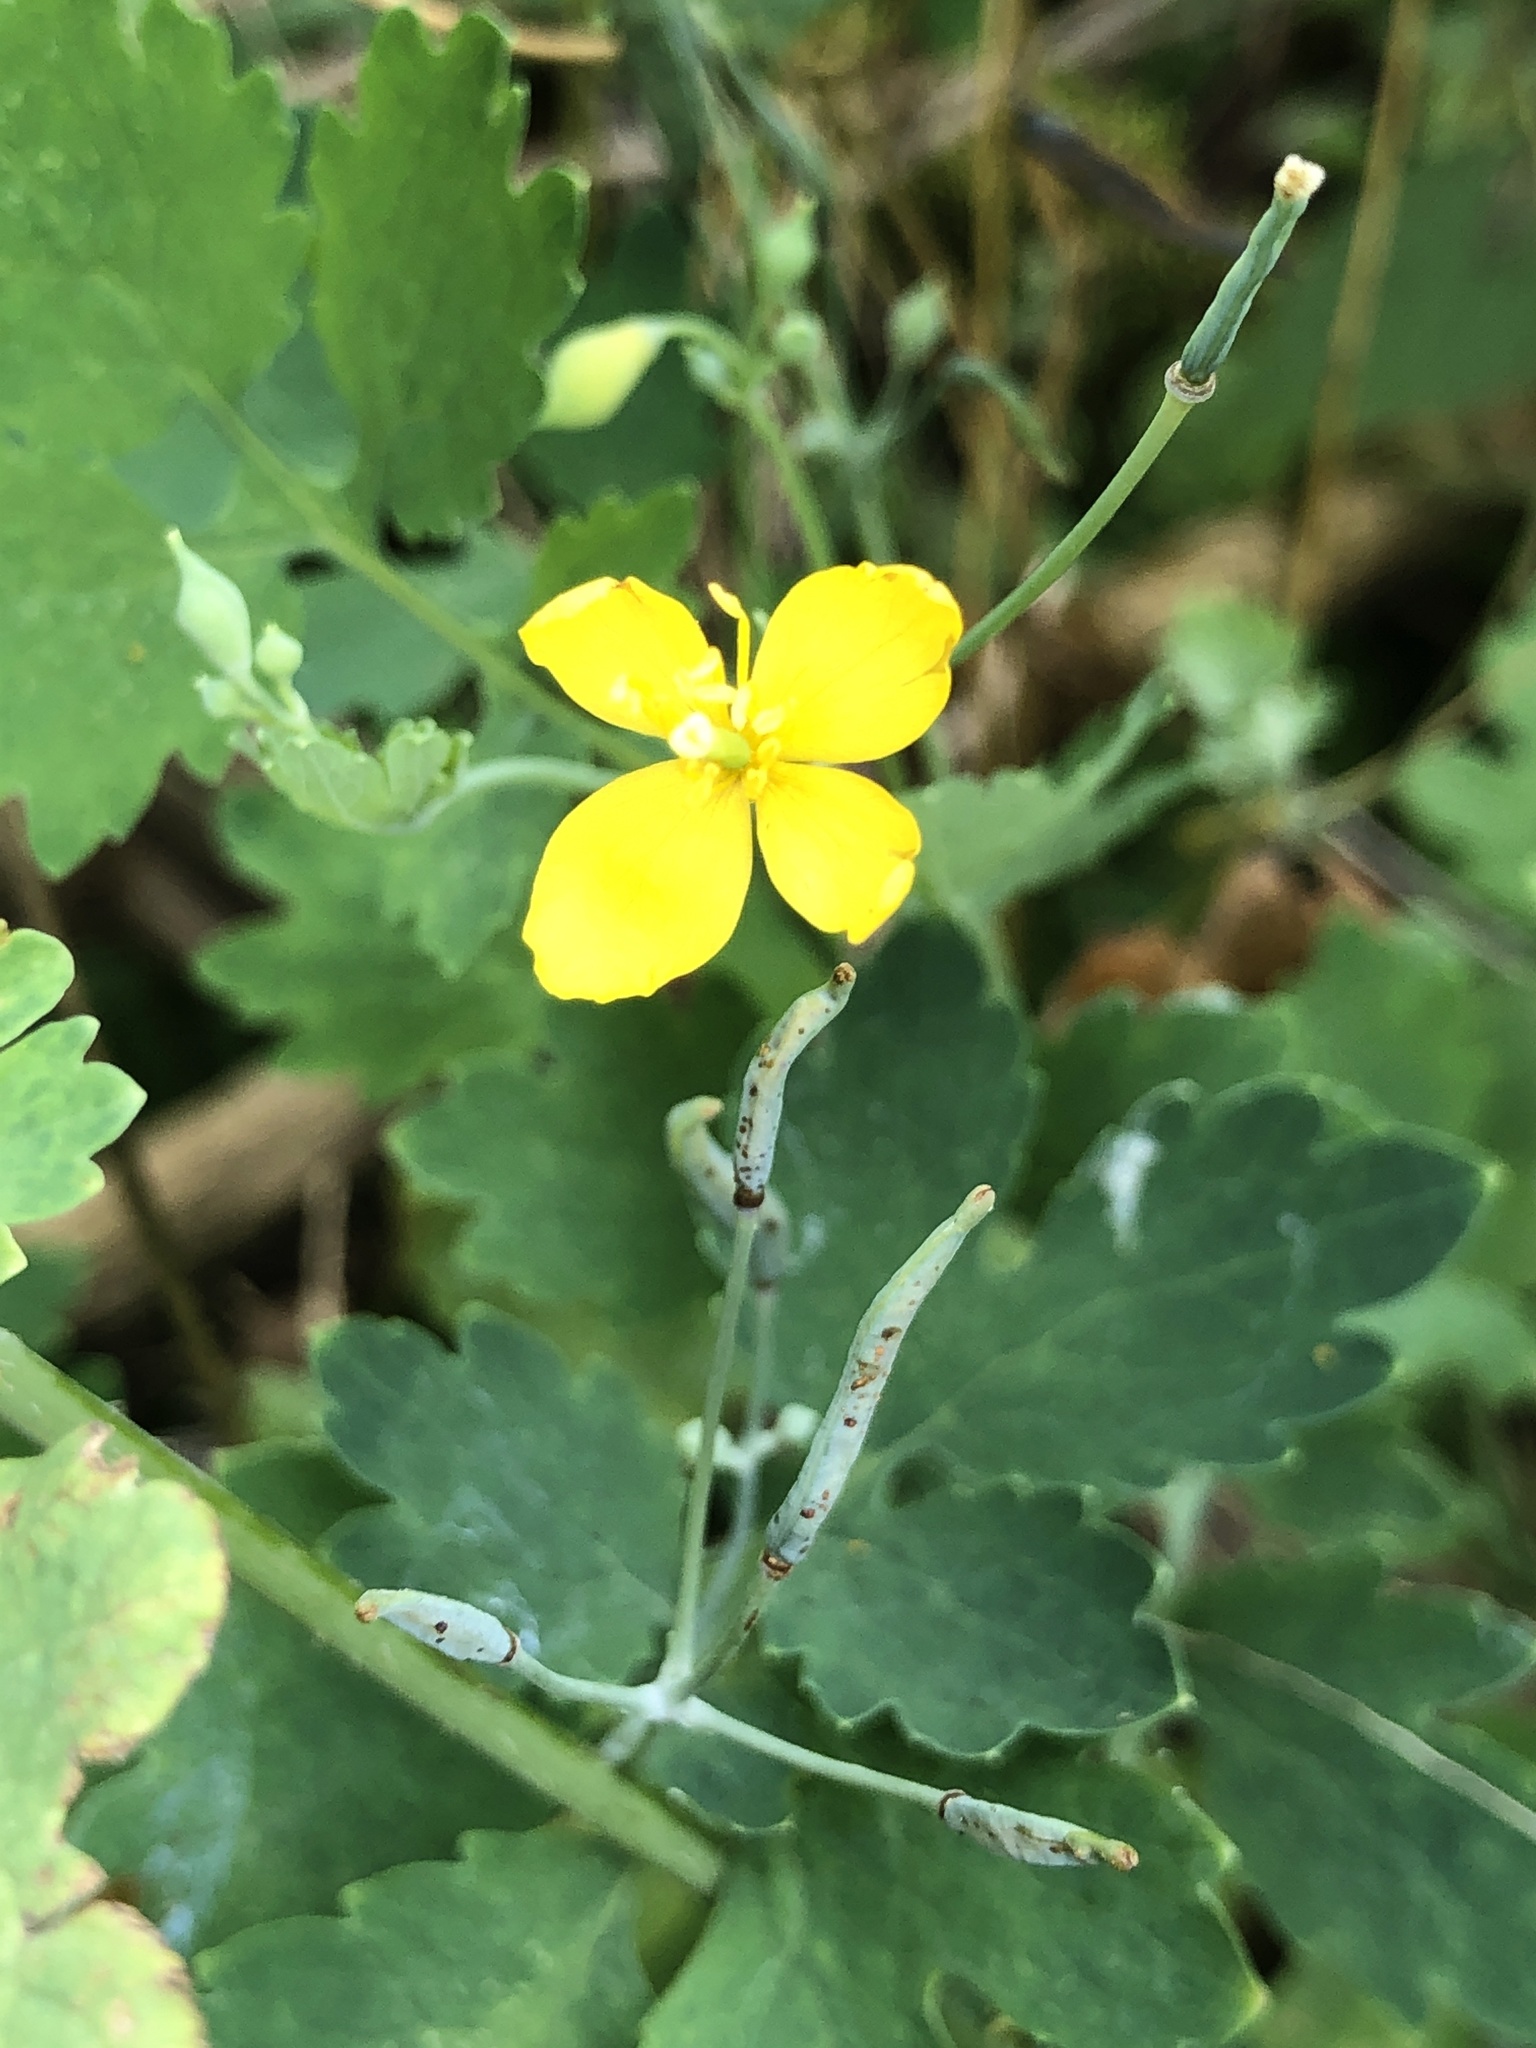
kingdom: Plantae
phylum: Tracheophyta
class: Magnoliopsida
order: Ranunculales
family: Papaveraceae
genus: Chelidonium
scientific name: Chelidonium majus
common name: Greater celandine
